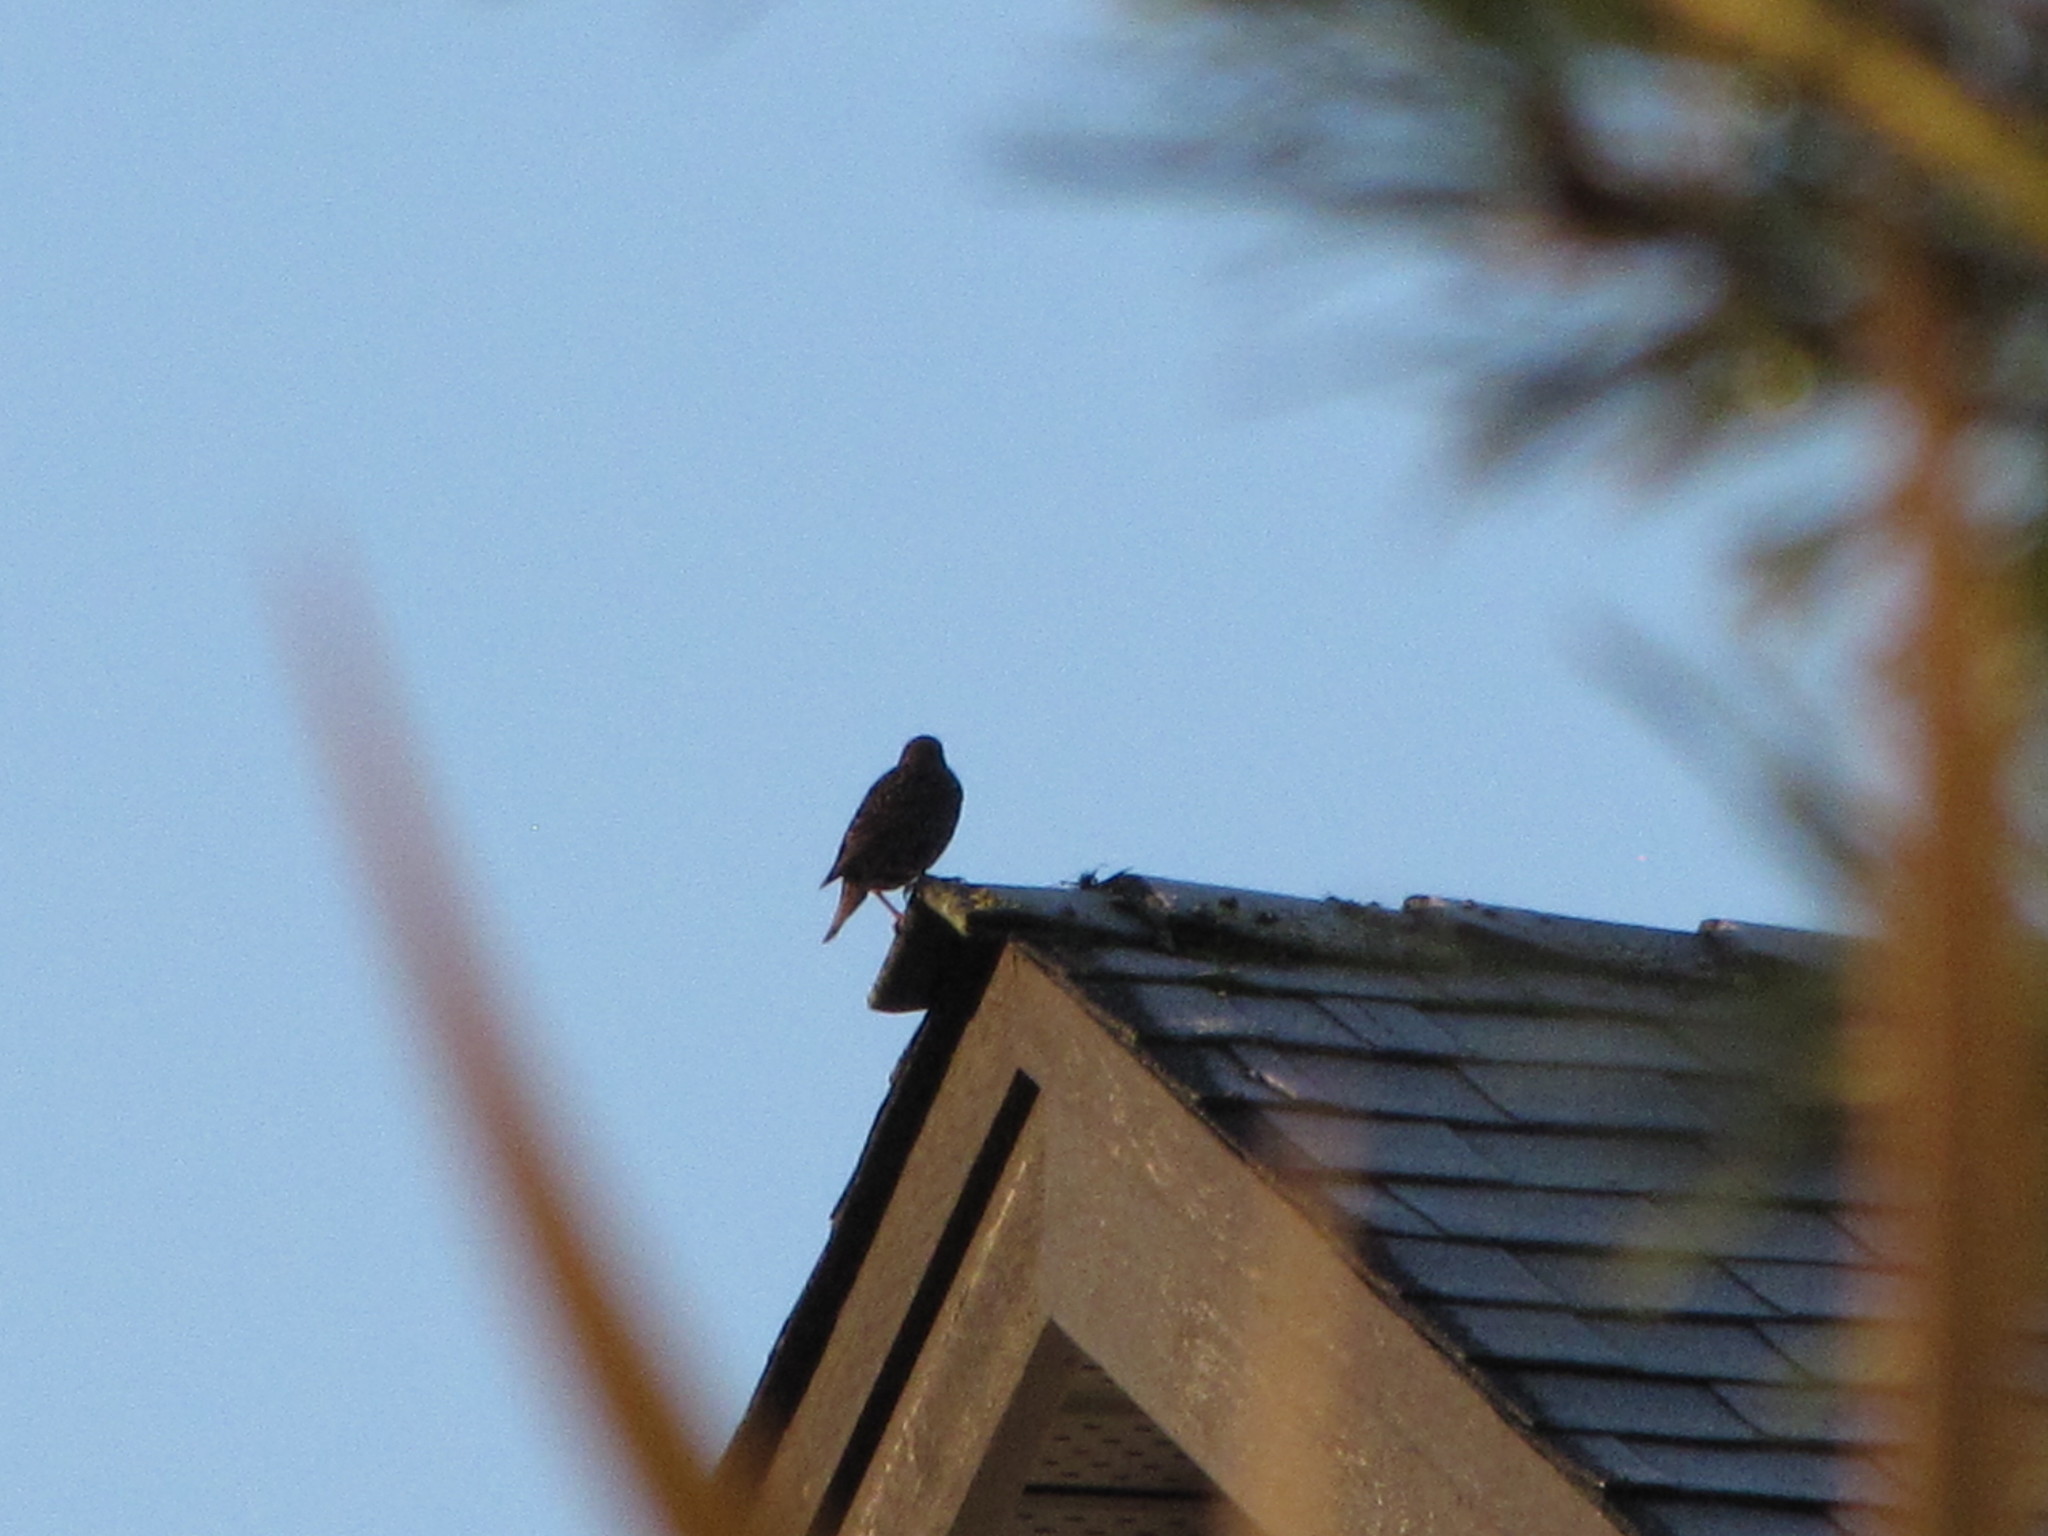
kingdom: Animalia
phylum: Chordata
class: Aves
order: Passeriformes
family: Sturnidae
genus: Sturnus
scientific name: Sturnus vulgaris
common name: Common starling
